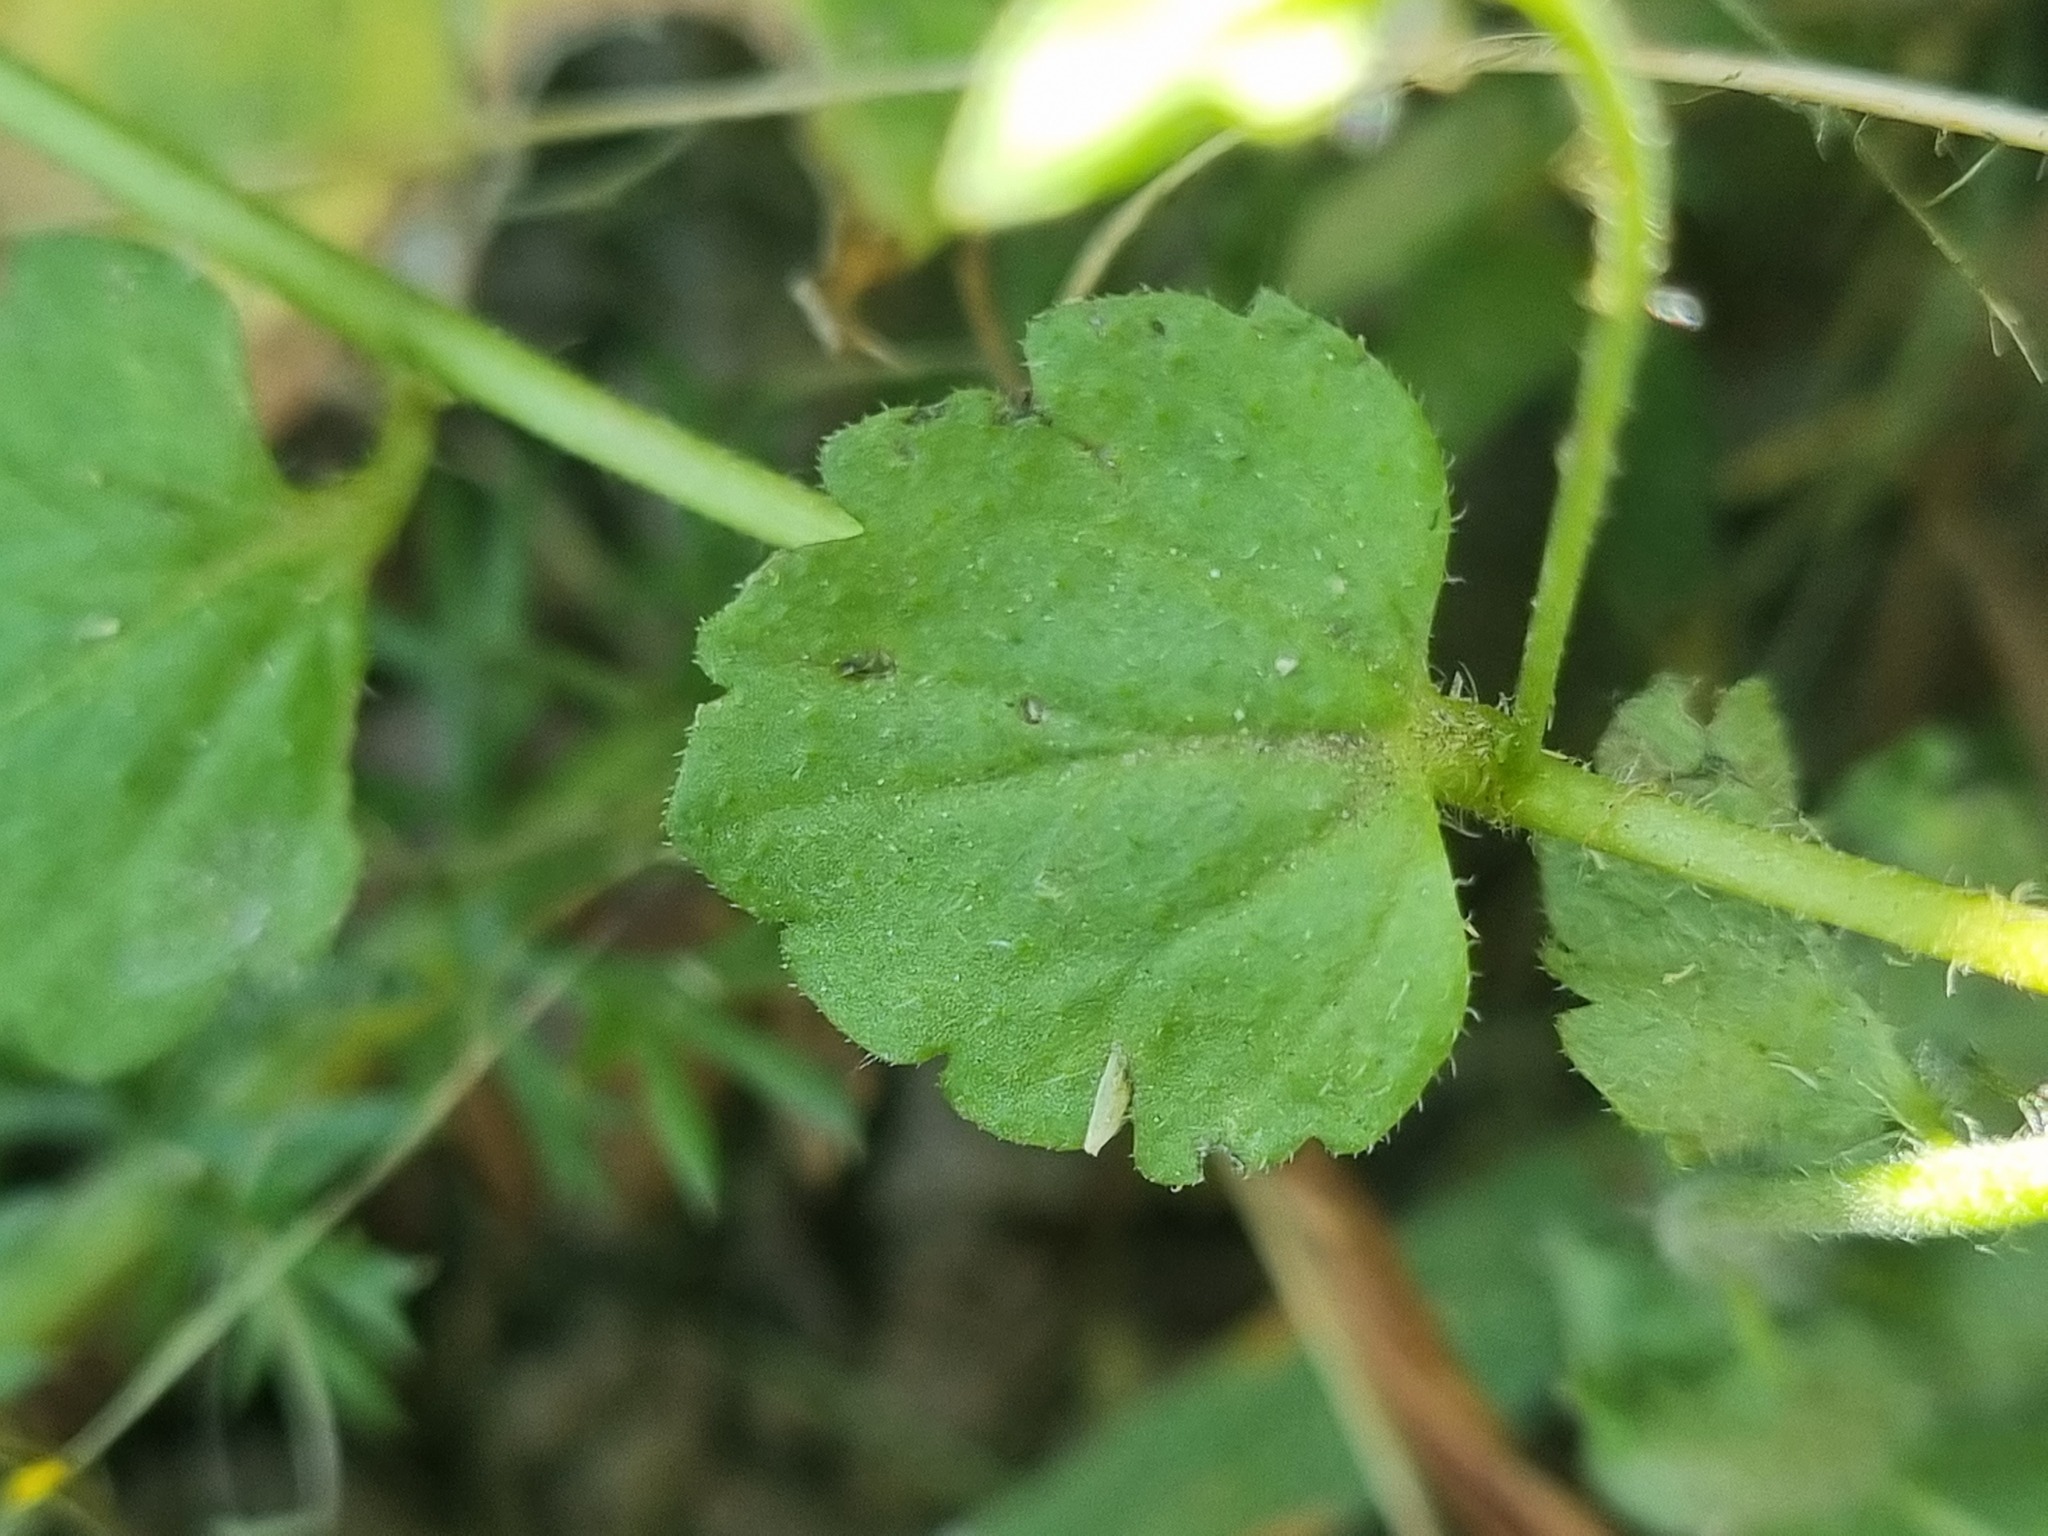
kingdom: Plantae
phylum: Tracheophyta
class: Magnoliopsida
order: Lamiales
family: Plantaginaceae
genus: Veronica
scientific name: Veronica persica
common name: Common field-speedwell
